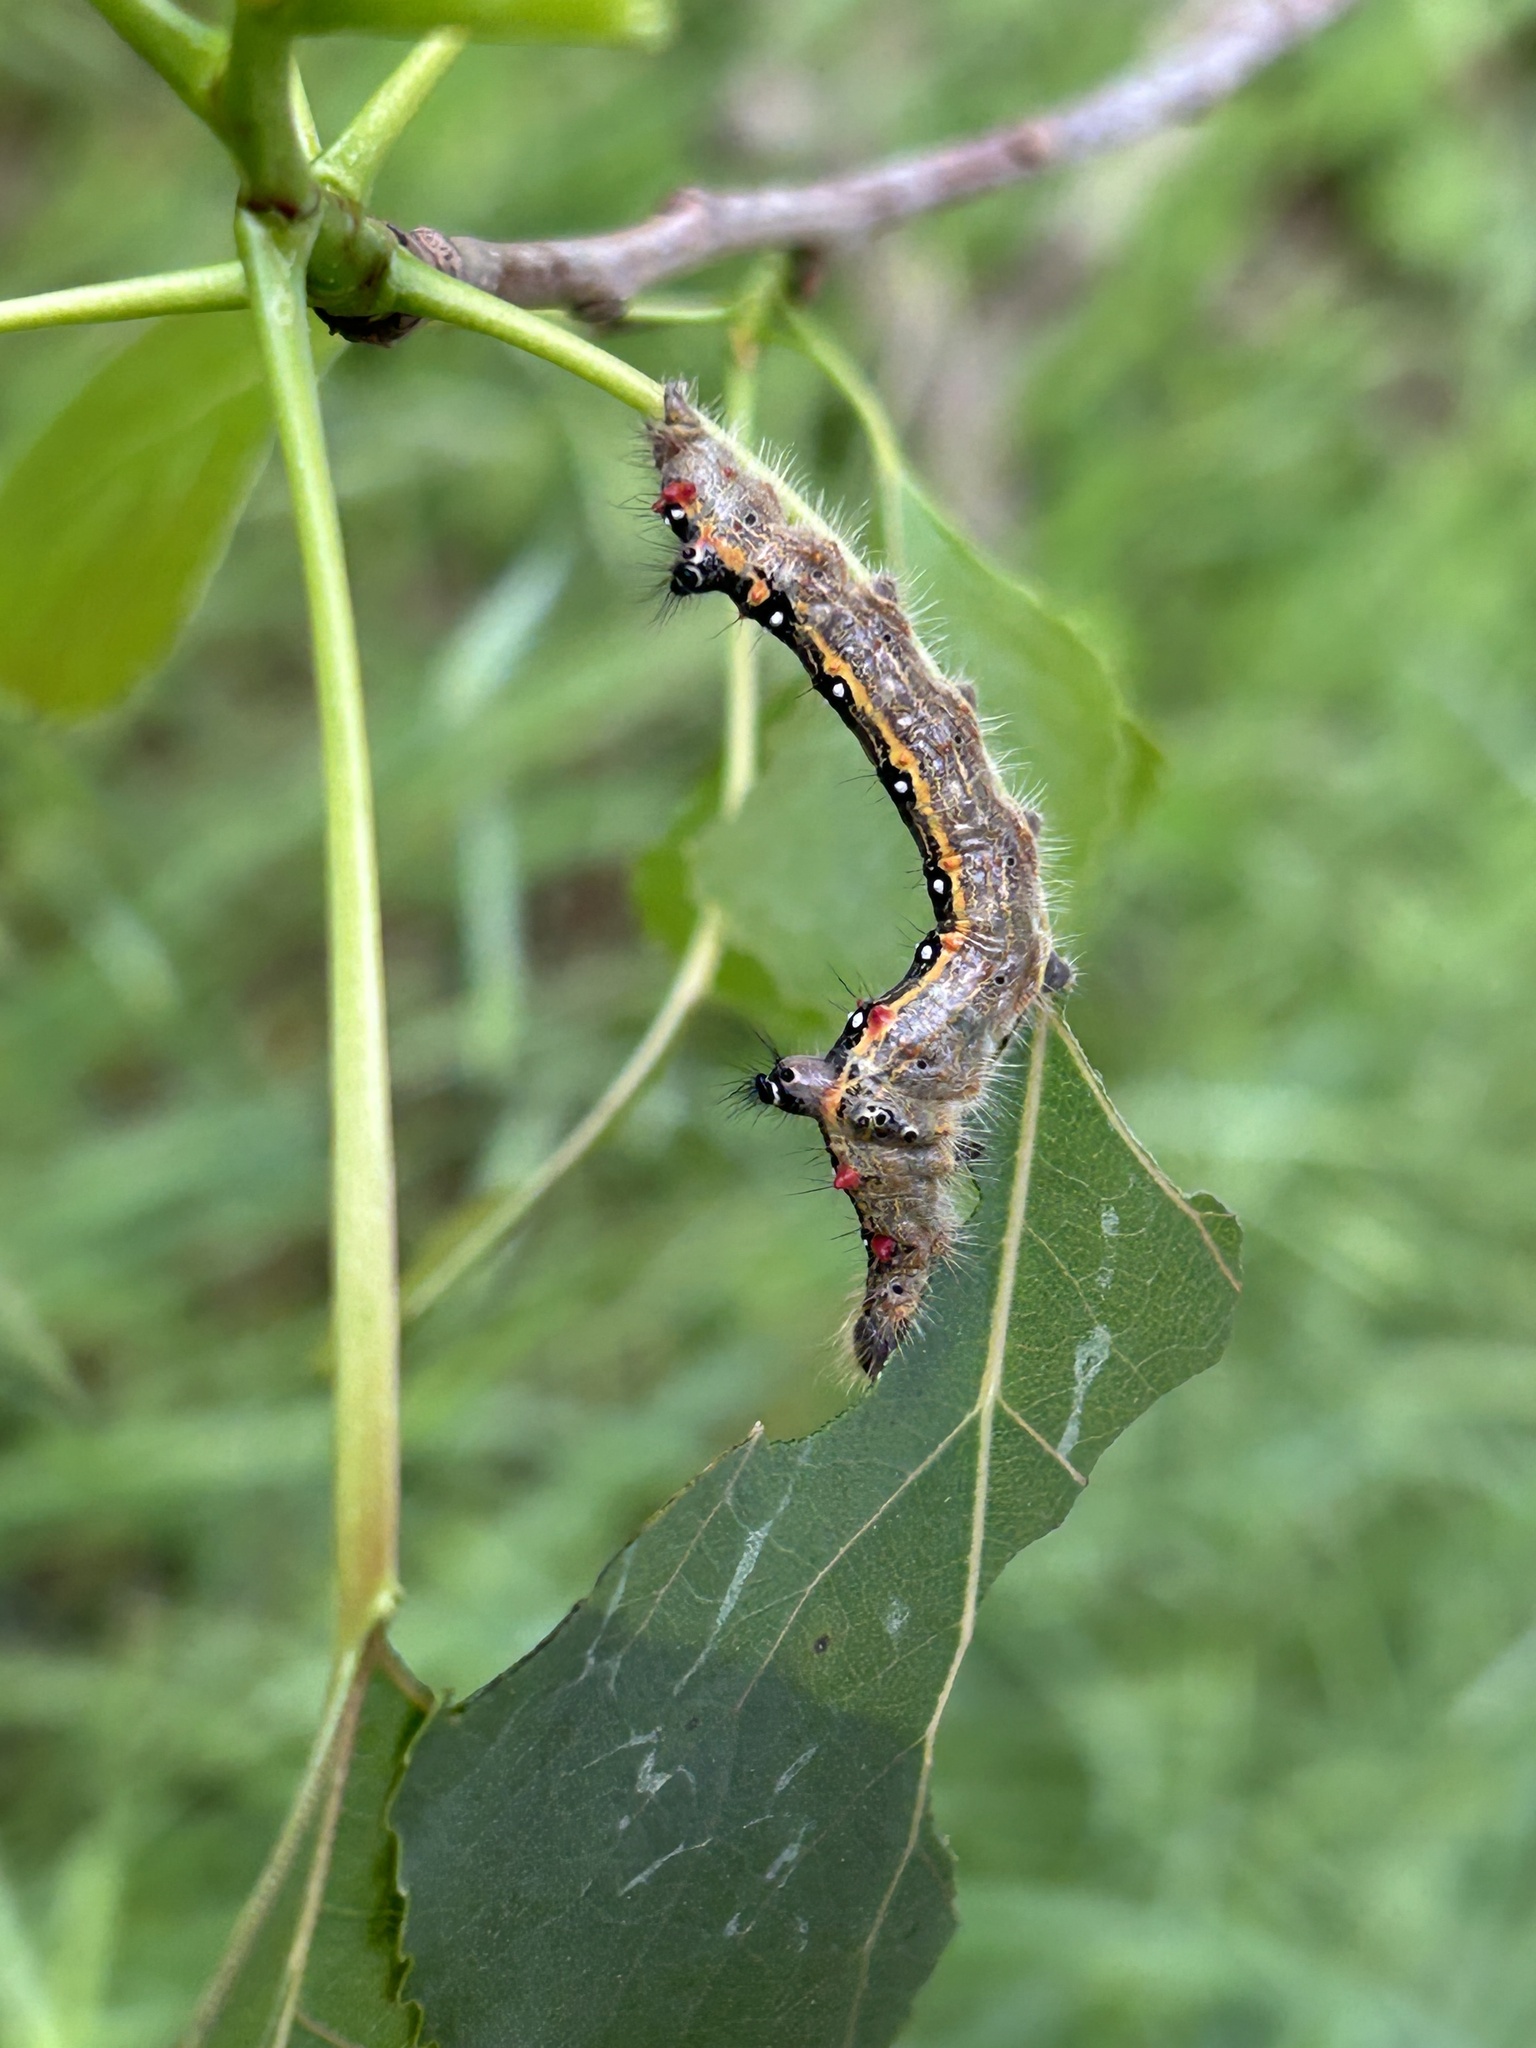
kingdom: Animalia
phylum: Arthropoda
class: Insecta
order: Lepidoptera
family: Notodontidae
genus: Clostera
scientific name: Clostera anastomosis
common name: Poplar tip moth
